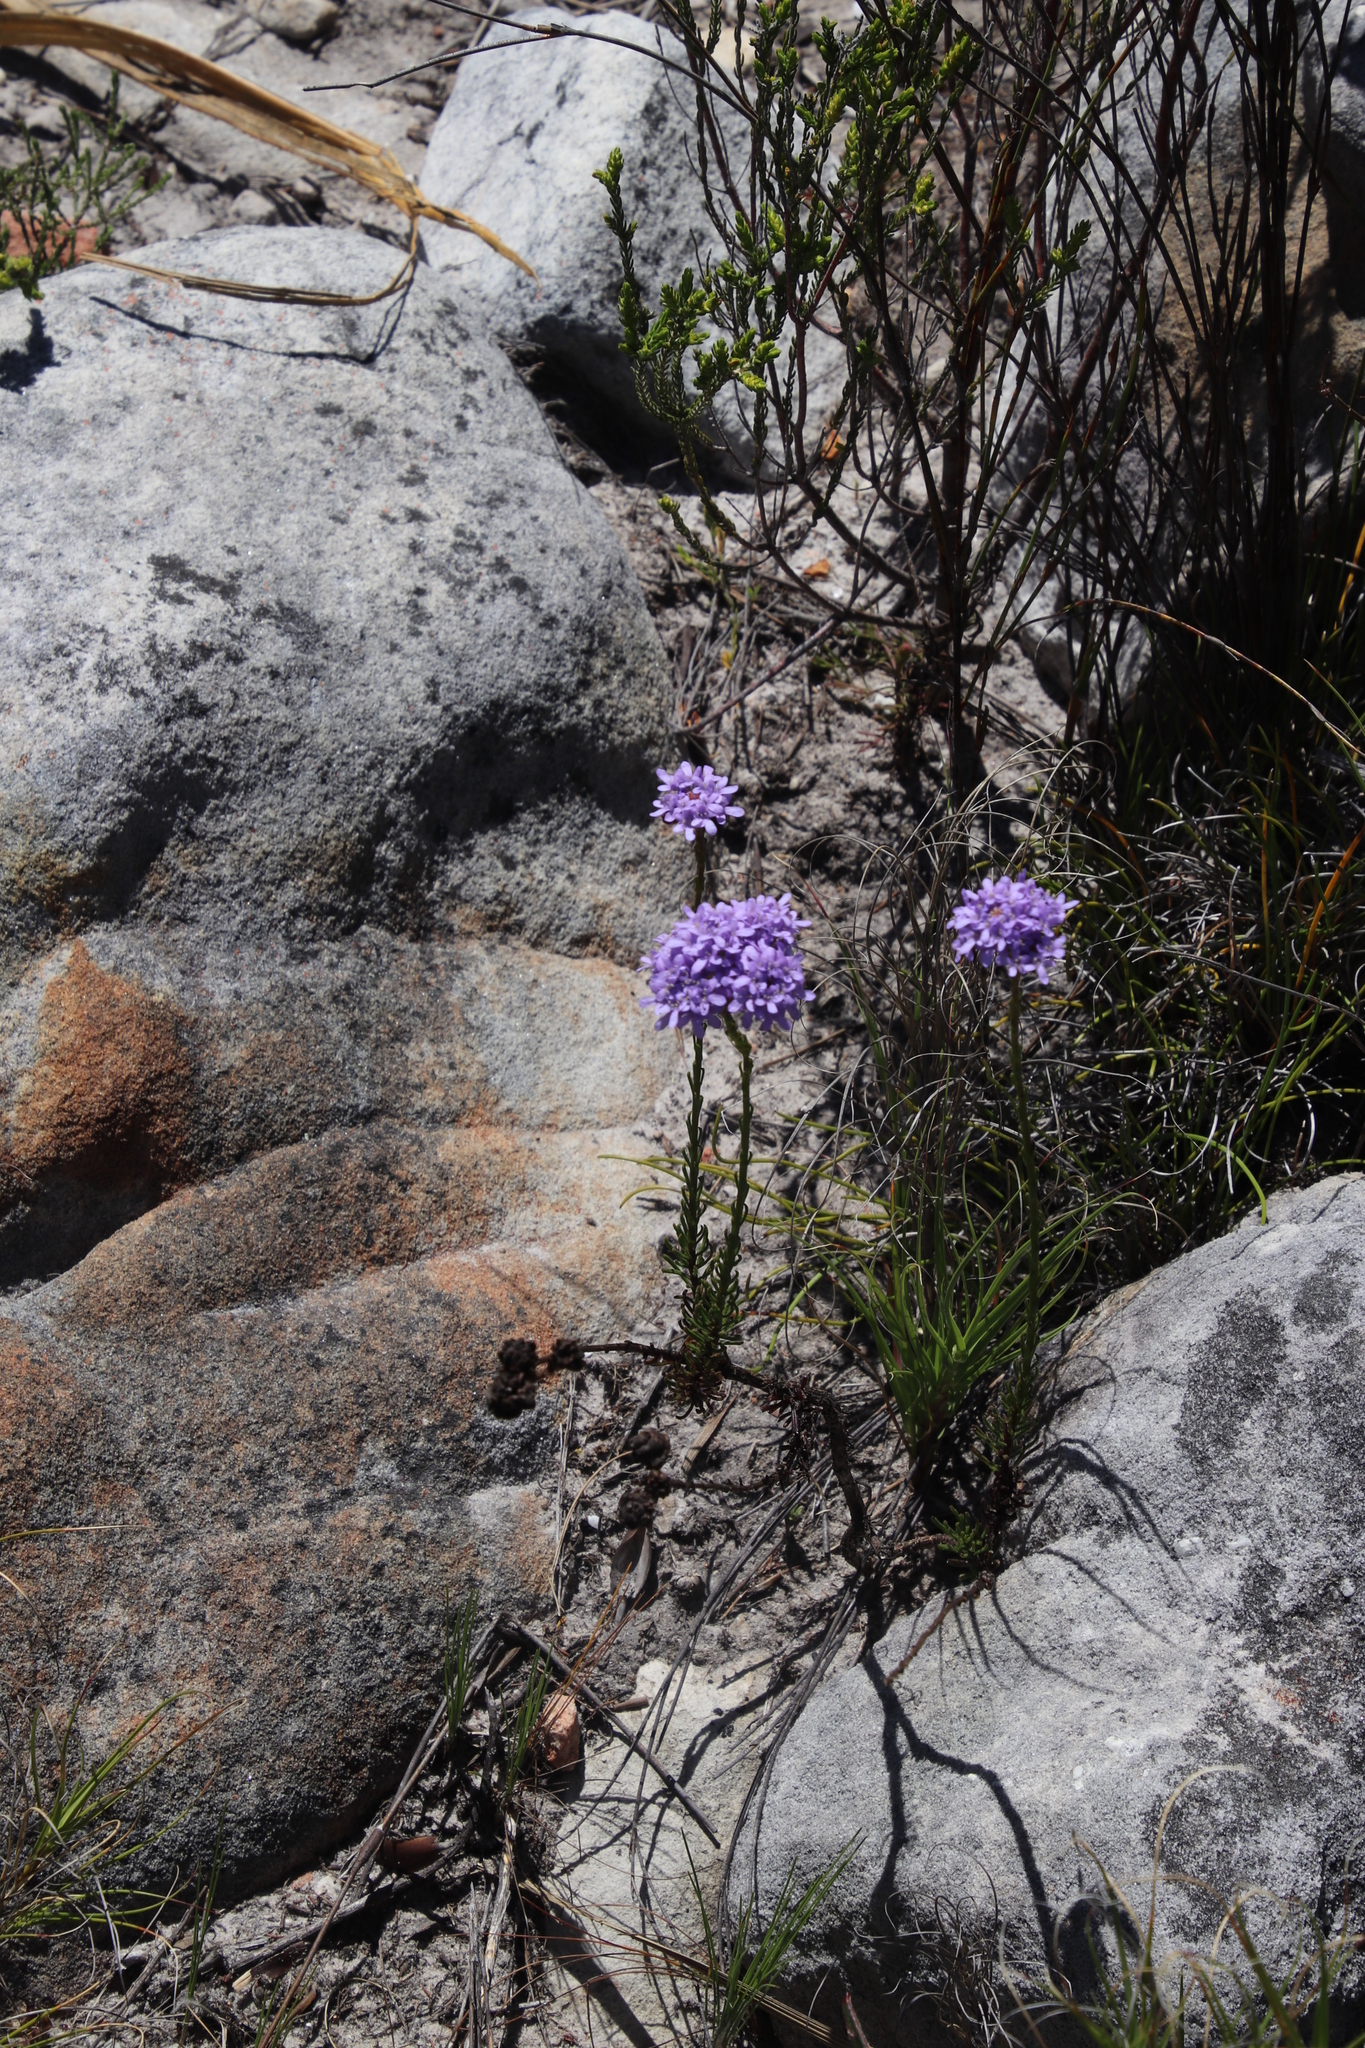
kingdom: Plantae
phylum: Tracheophyta
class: Magnoliopsida
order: Lamiales
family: Scrophulariaceae
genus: Pseudoselago
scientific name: Pseudoselago spuria
